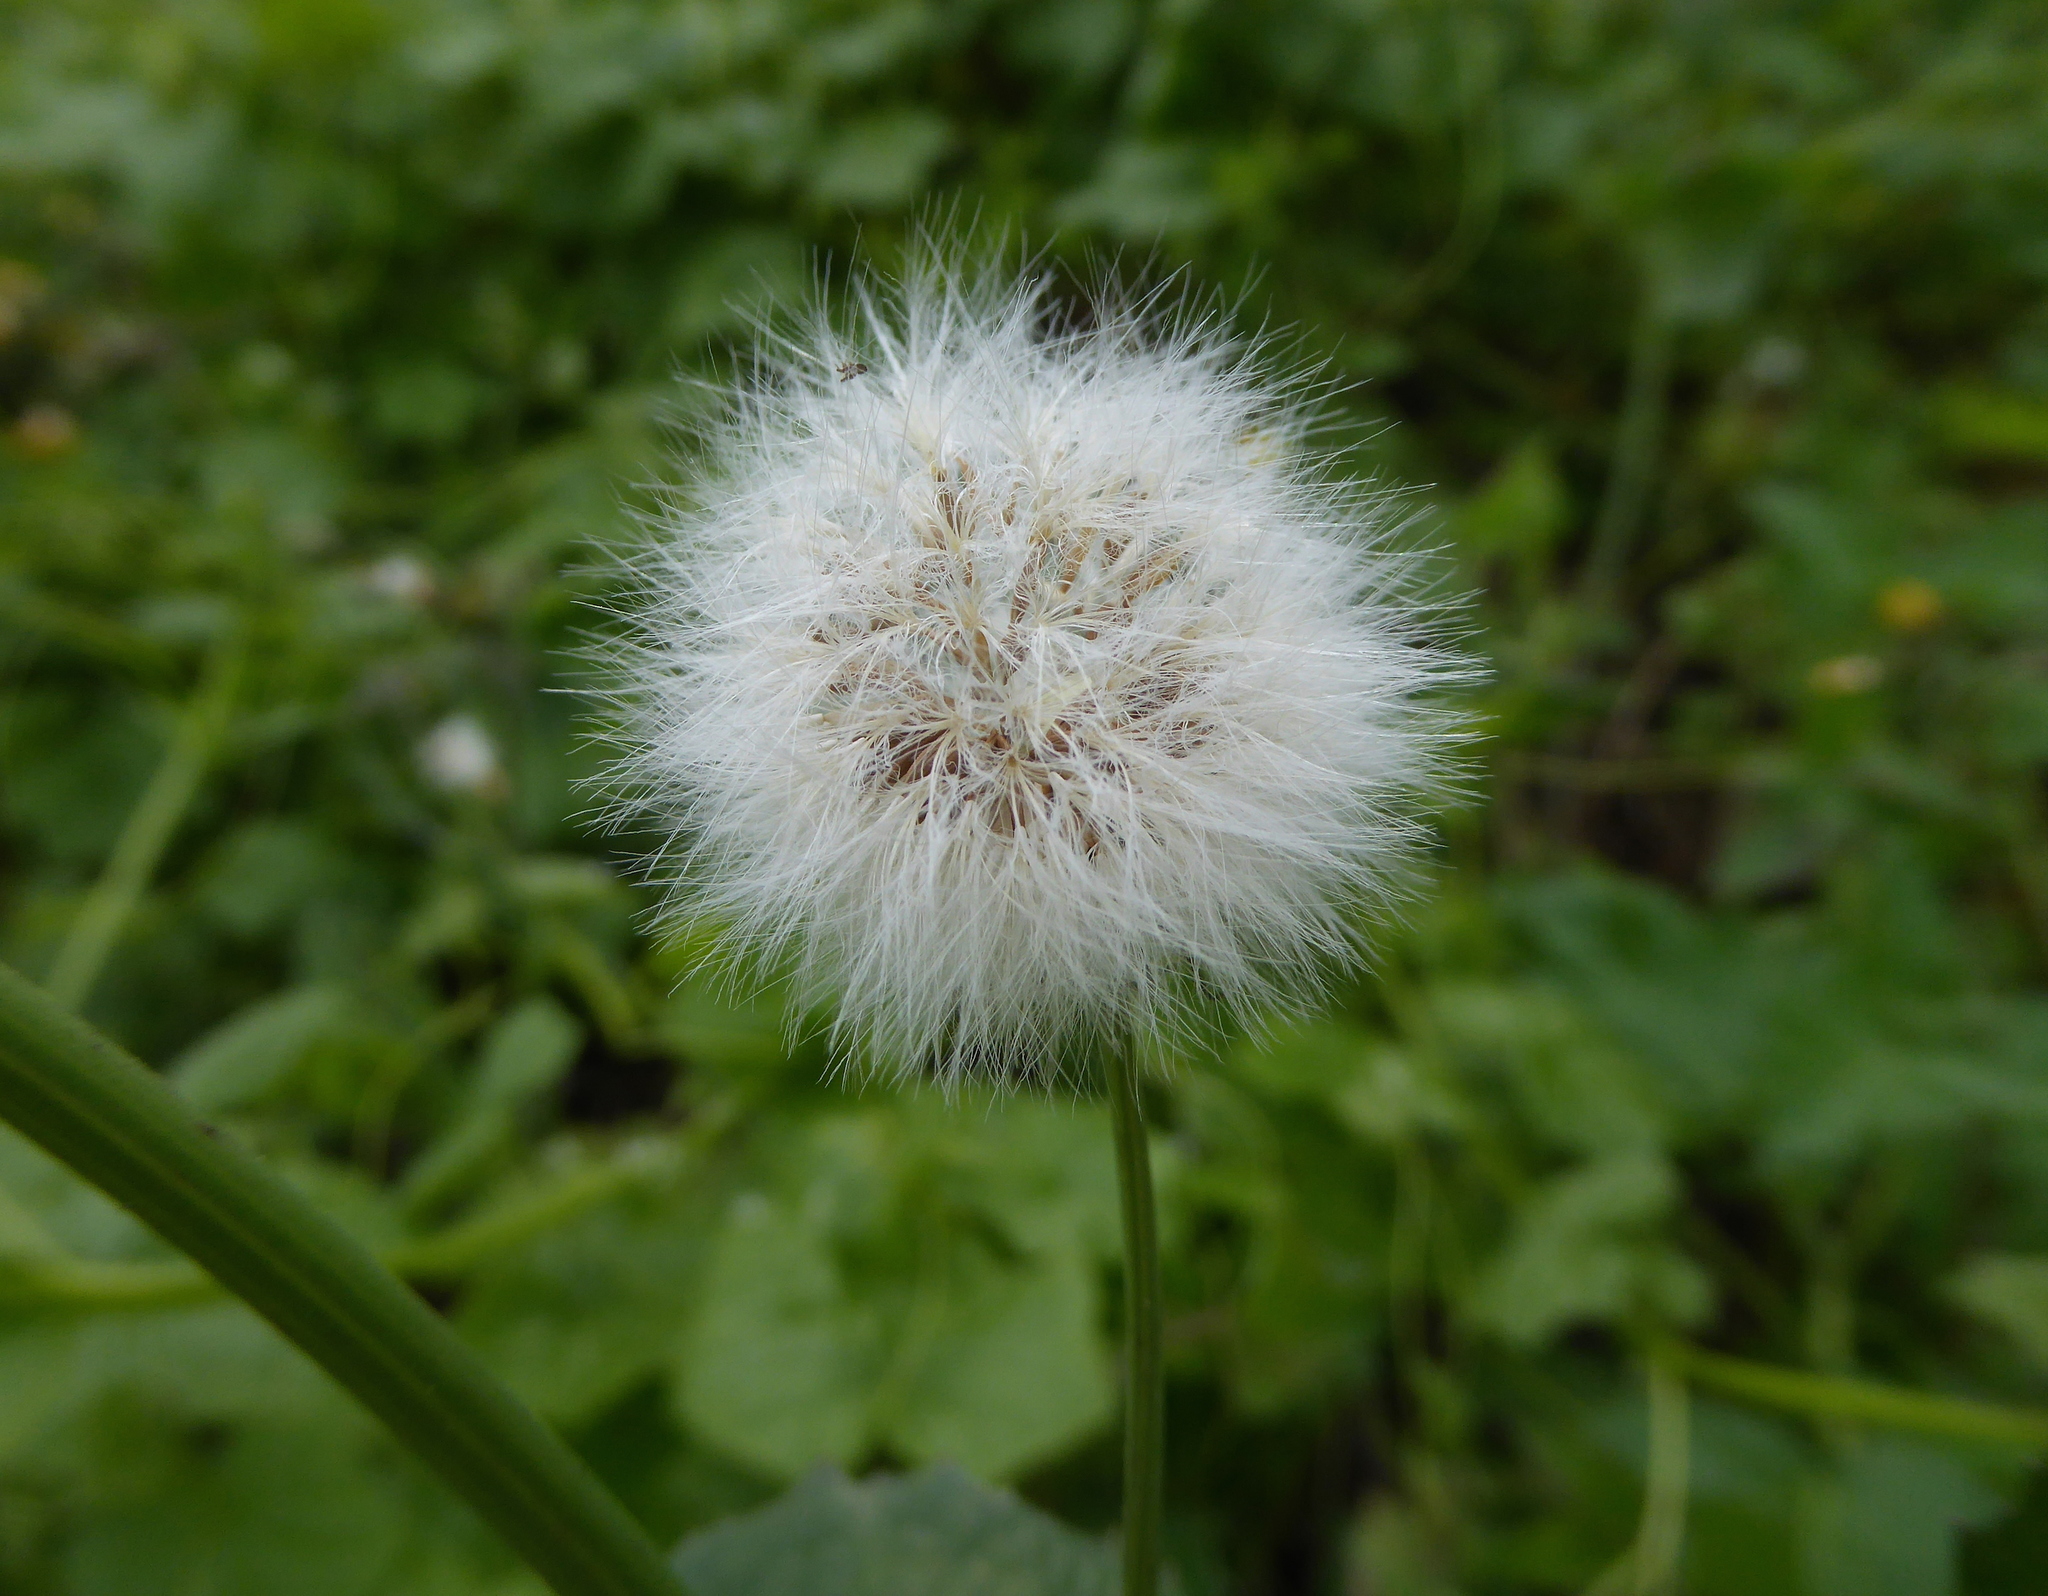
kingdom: Plantae
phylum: Tracheophyta
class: Magnoliopsida
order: Asterales
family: Asteraceae
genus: Sonchus
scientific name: Sonchus oleraceus
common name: Common sowthistle
